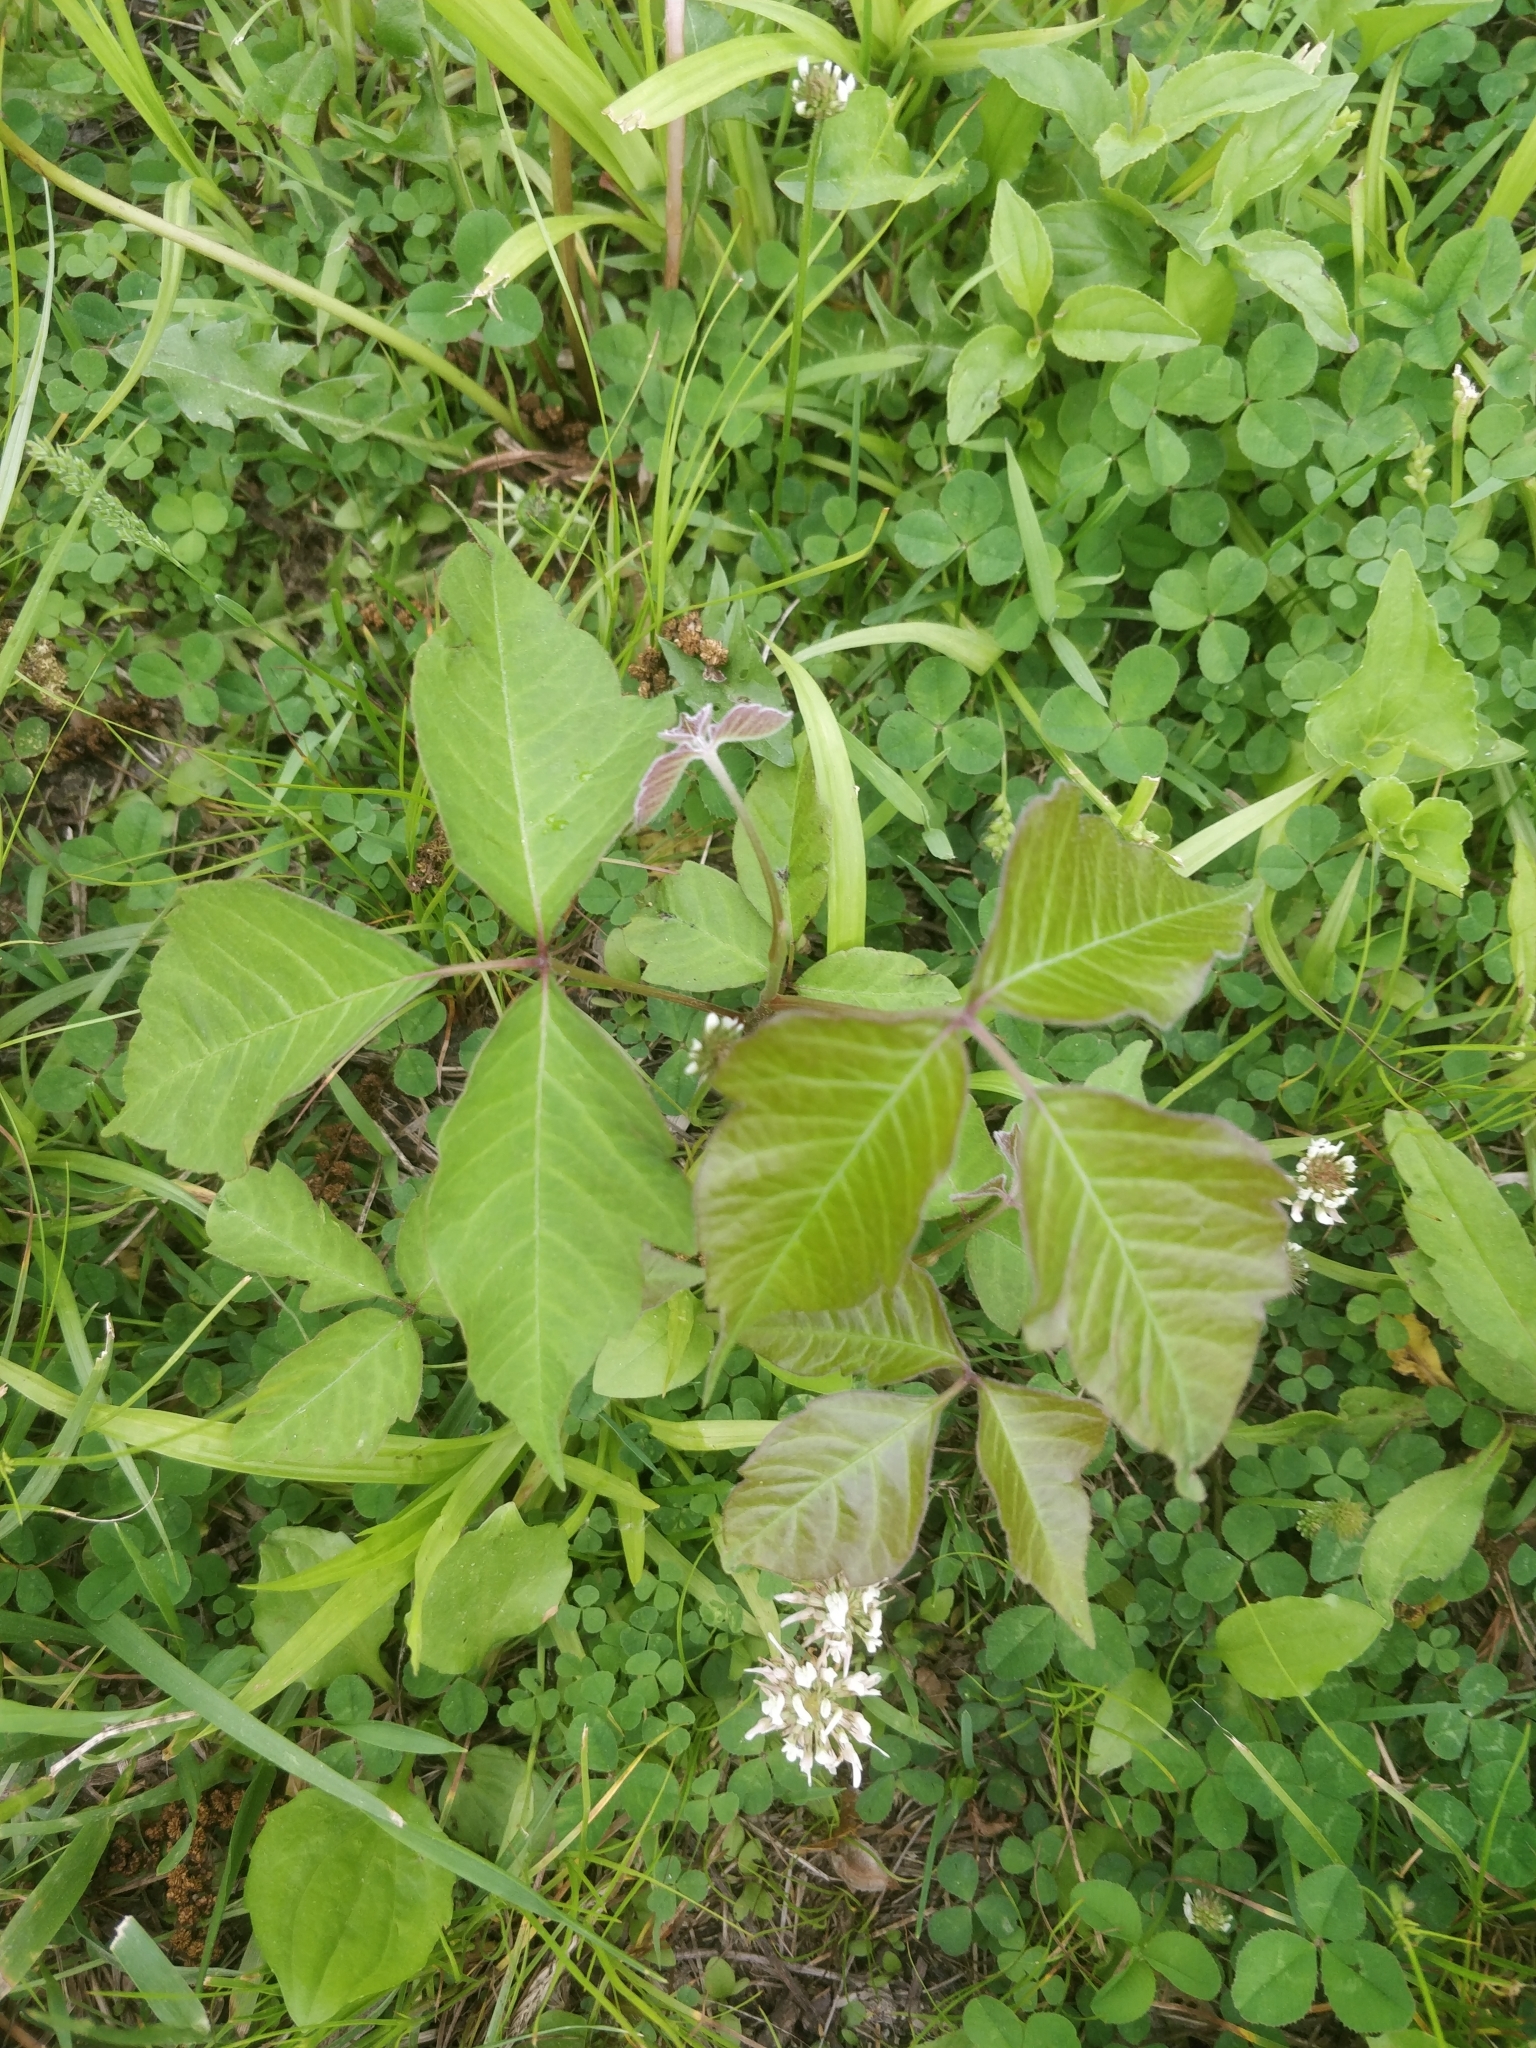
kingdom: Plantae
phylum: Tracheophyta
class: Magnoliopsida
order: Sapindales
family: Anacardiaceae
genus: Toxicodendron
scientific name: Toxicodendron radicans
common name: Poison ivy
